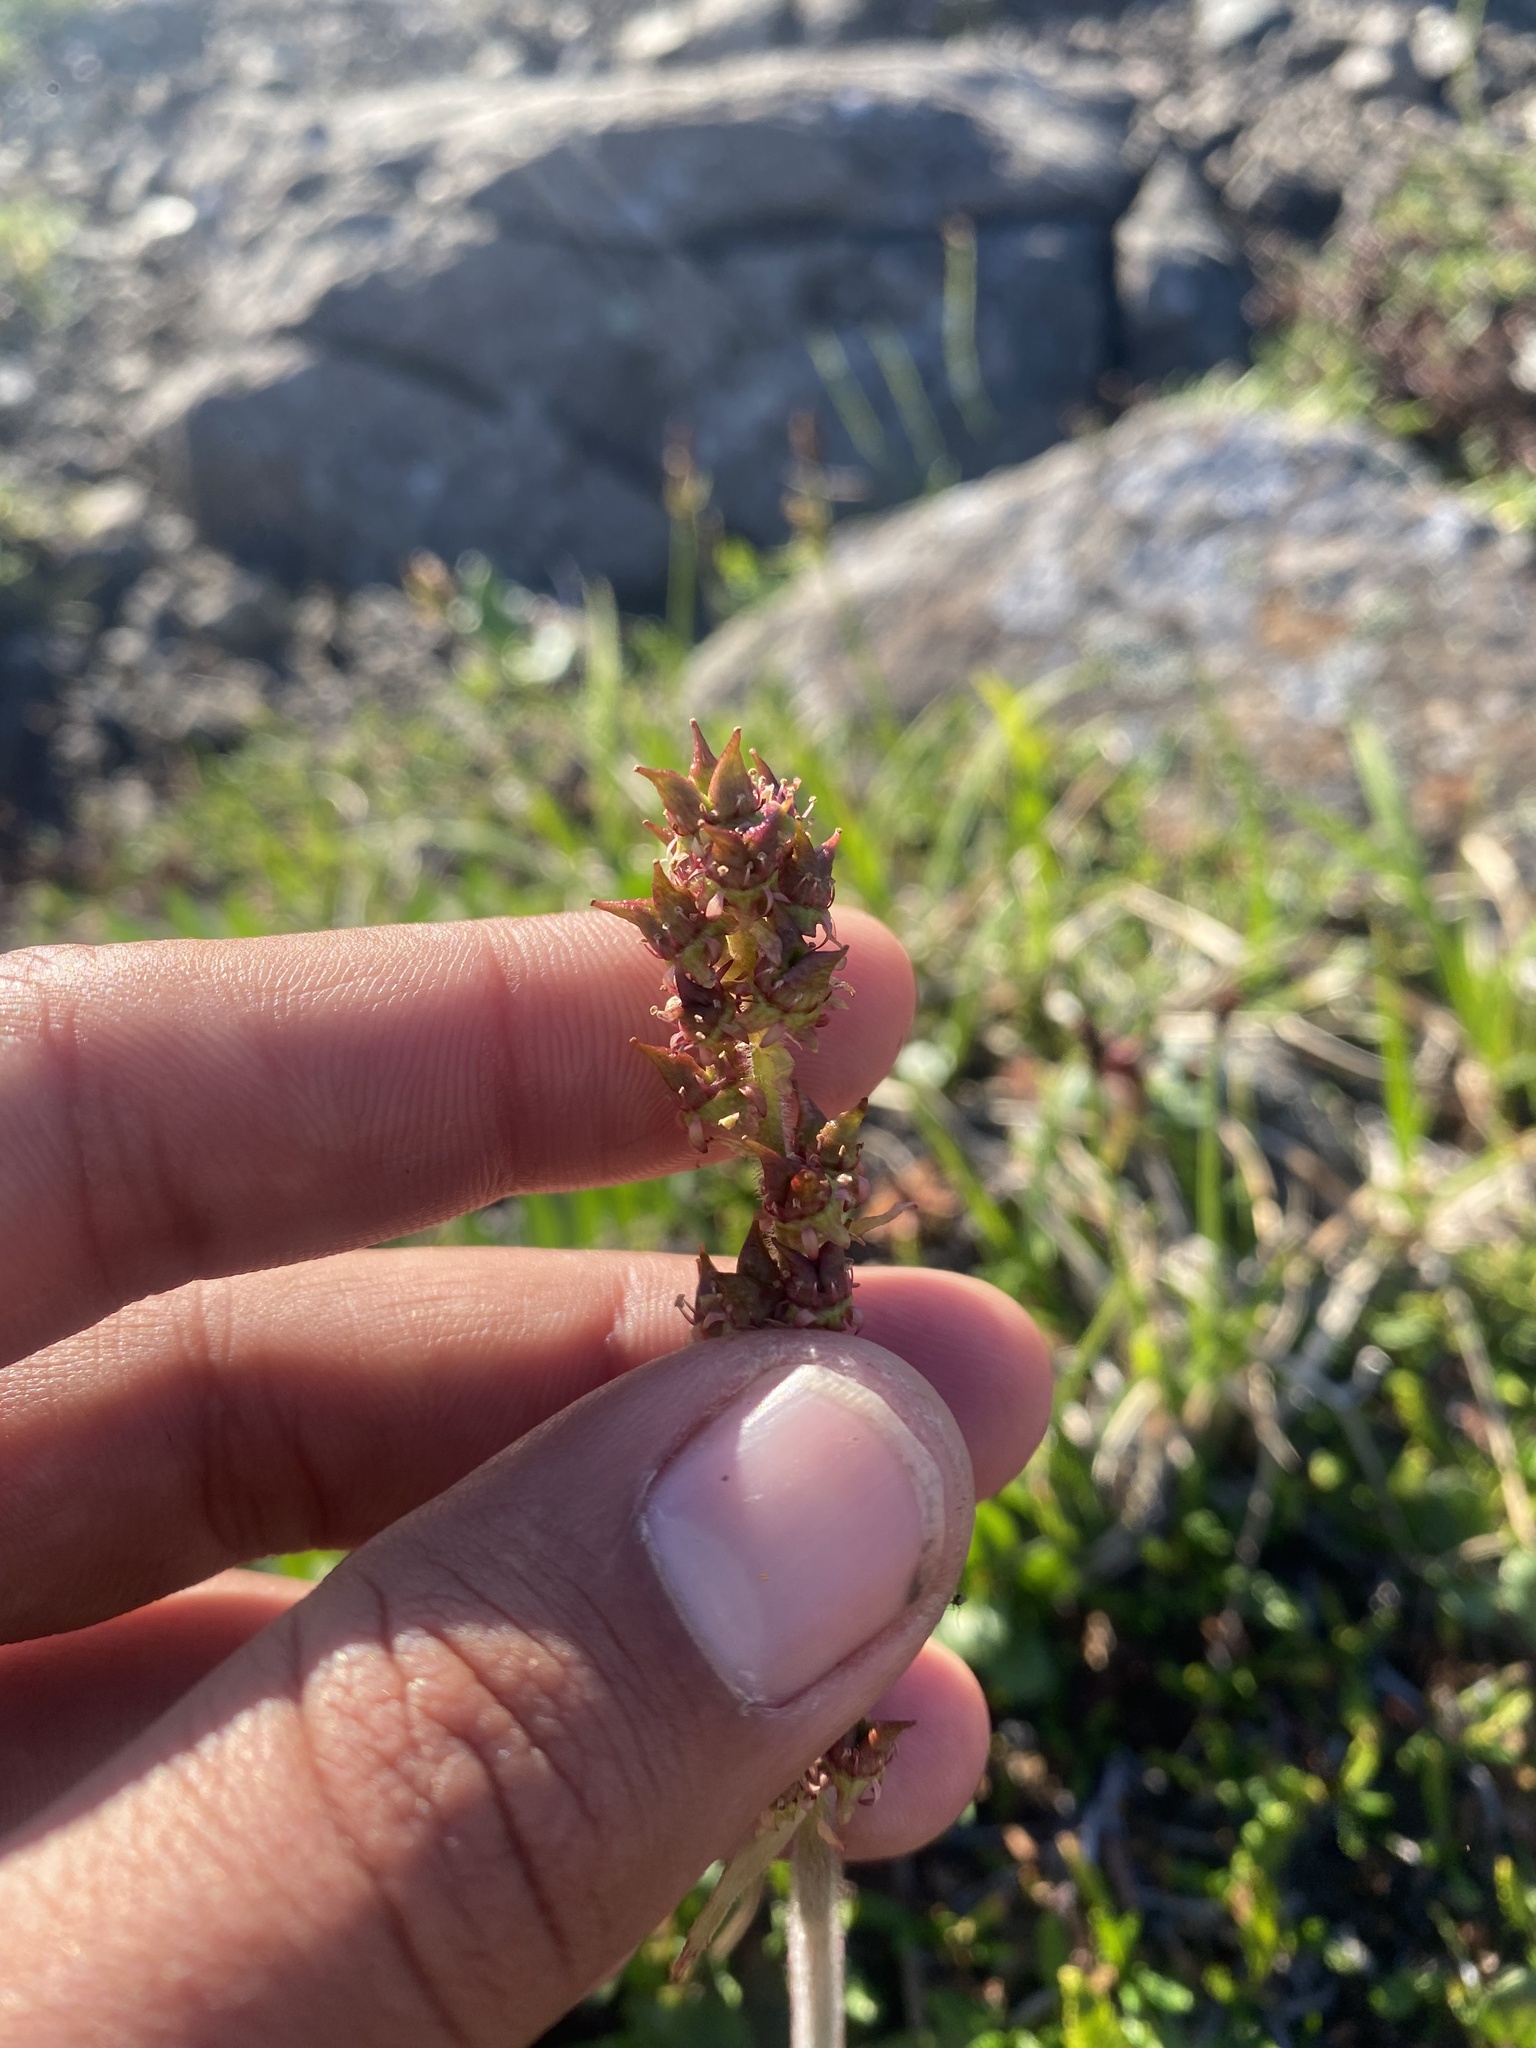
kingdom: Plantae
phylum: Tracheophyta
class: Magnoliopsida
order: Saxifragales
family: Saxifragaceae
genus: Micranthes
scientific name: Micranthes hieraciifolia
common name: Hawkweed-leaved saxifrage
